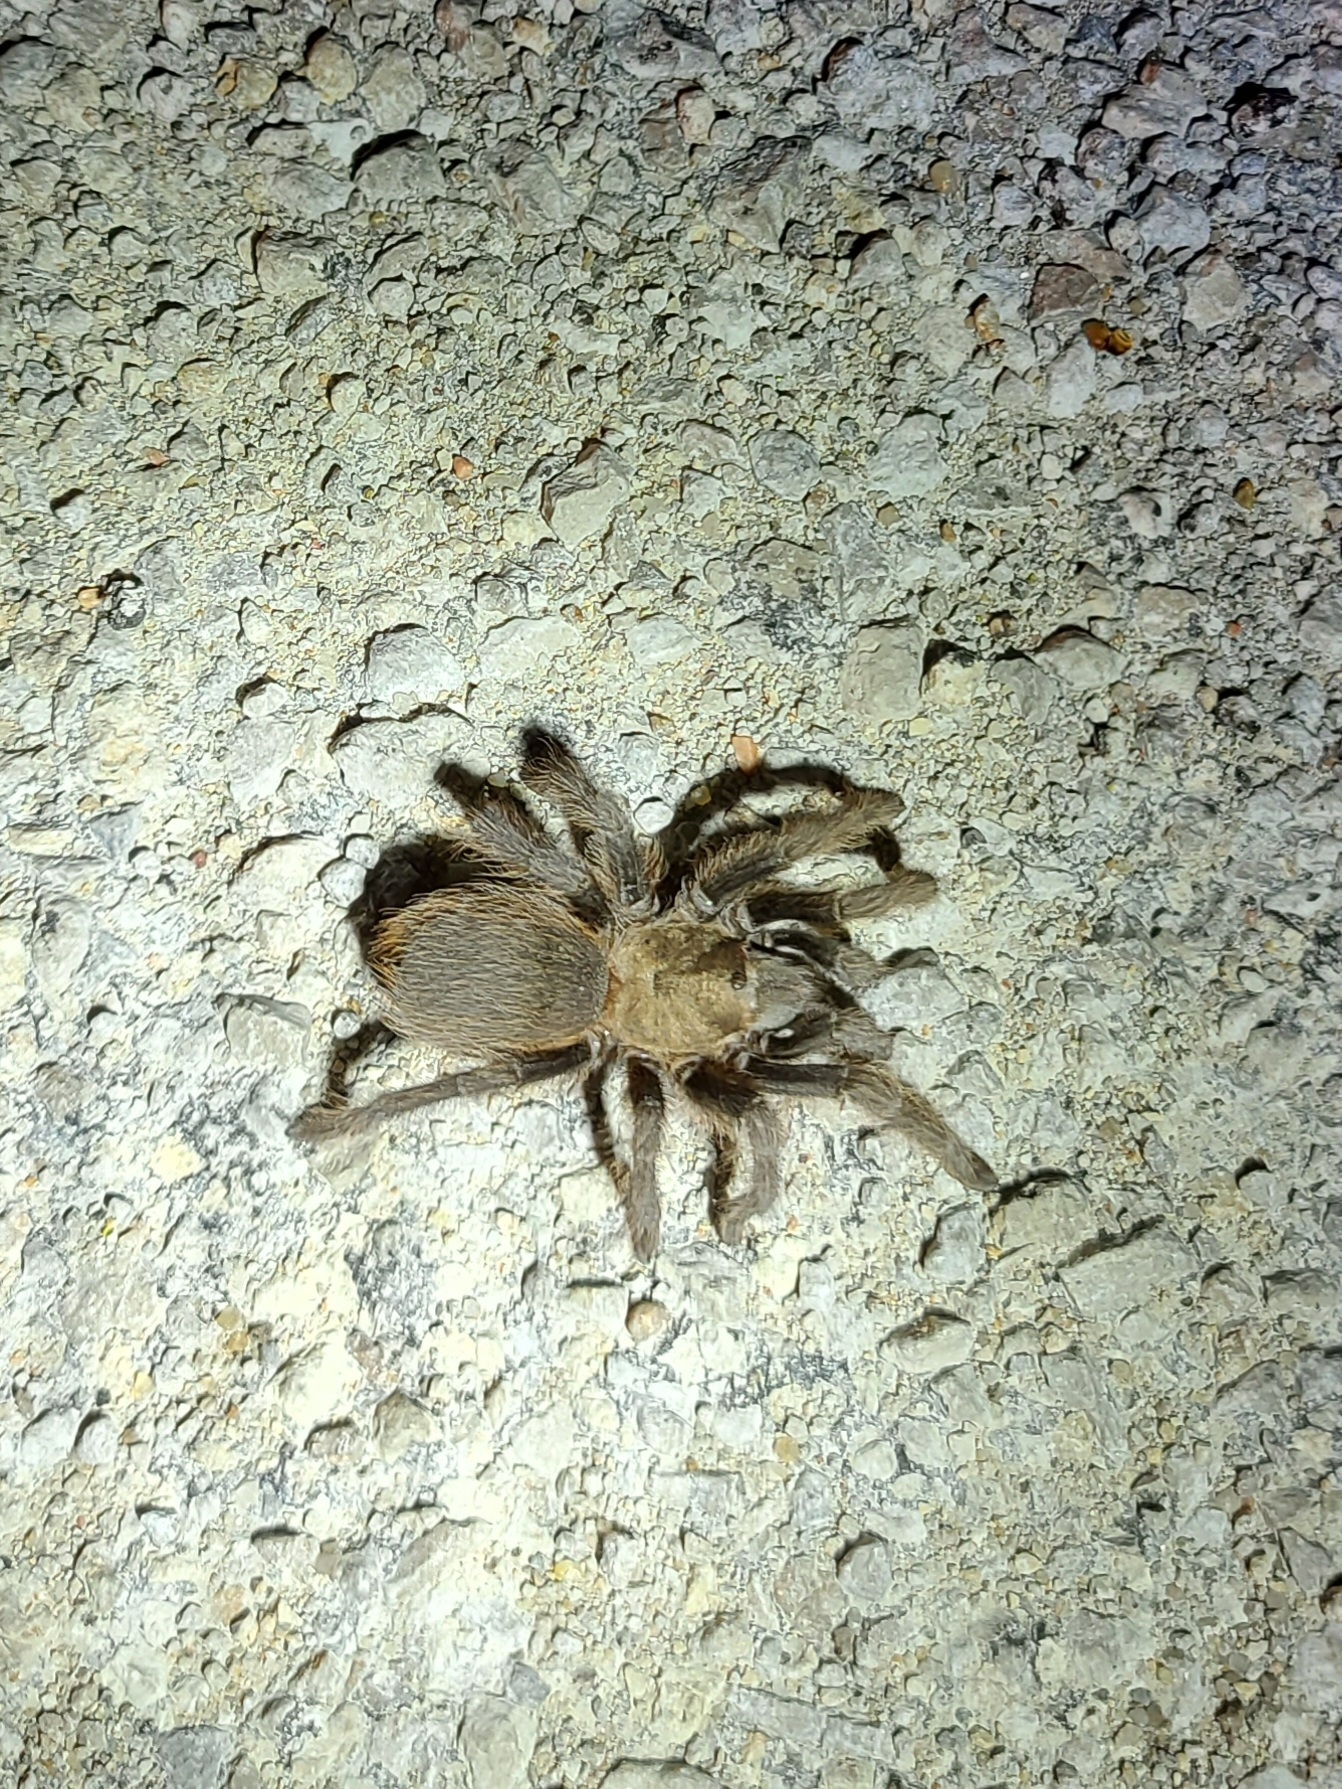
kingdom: Animalia
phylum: Arthropoda
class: Arachnida
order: Araneae
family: Theraphosidae
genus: Aphonopelma
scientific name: Aphonopelma hentzi
